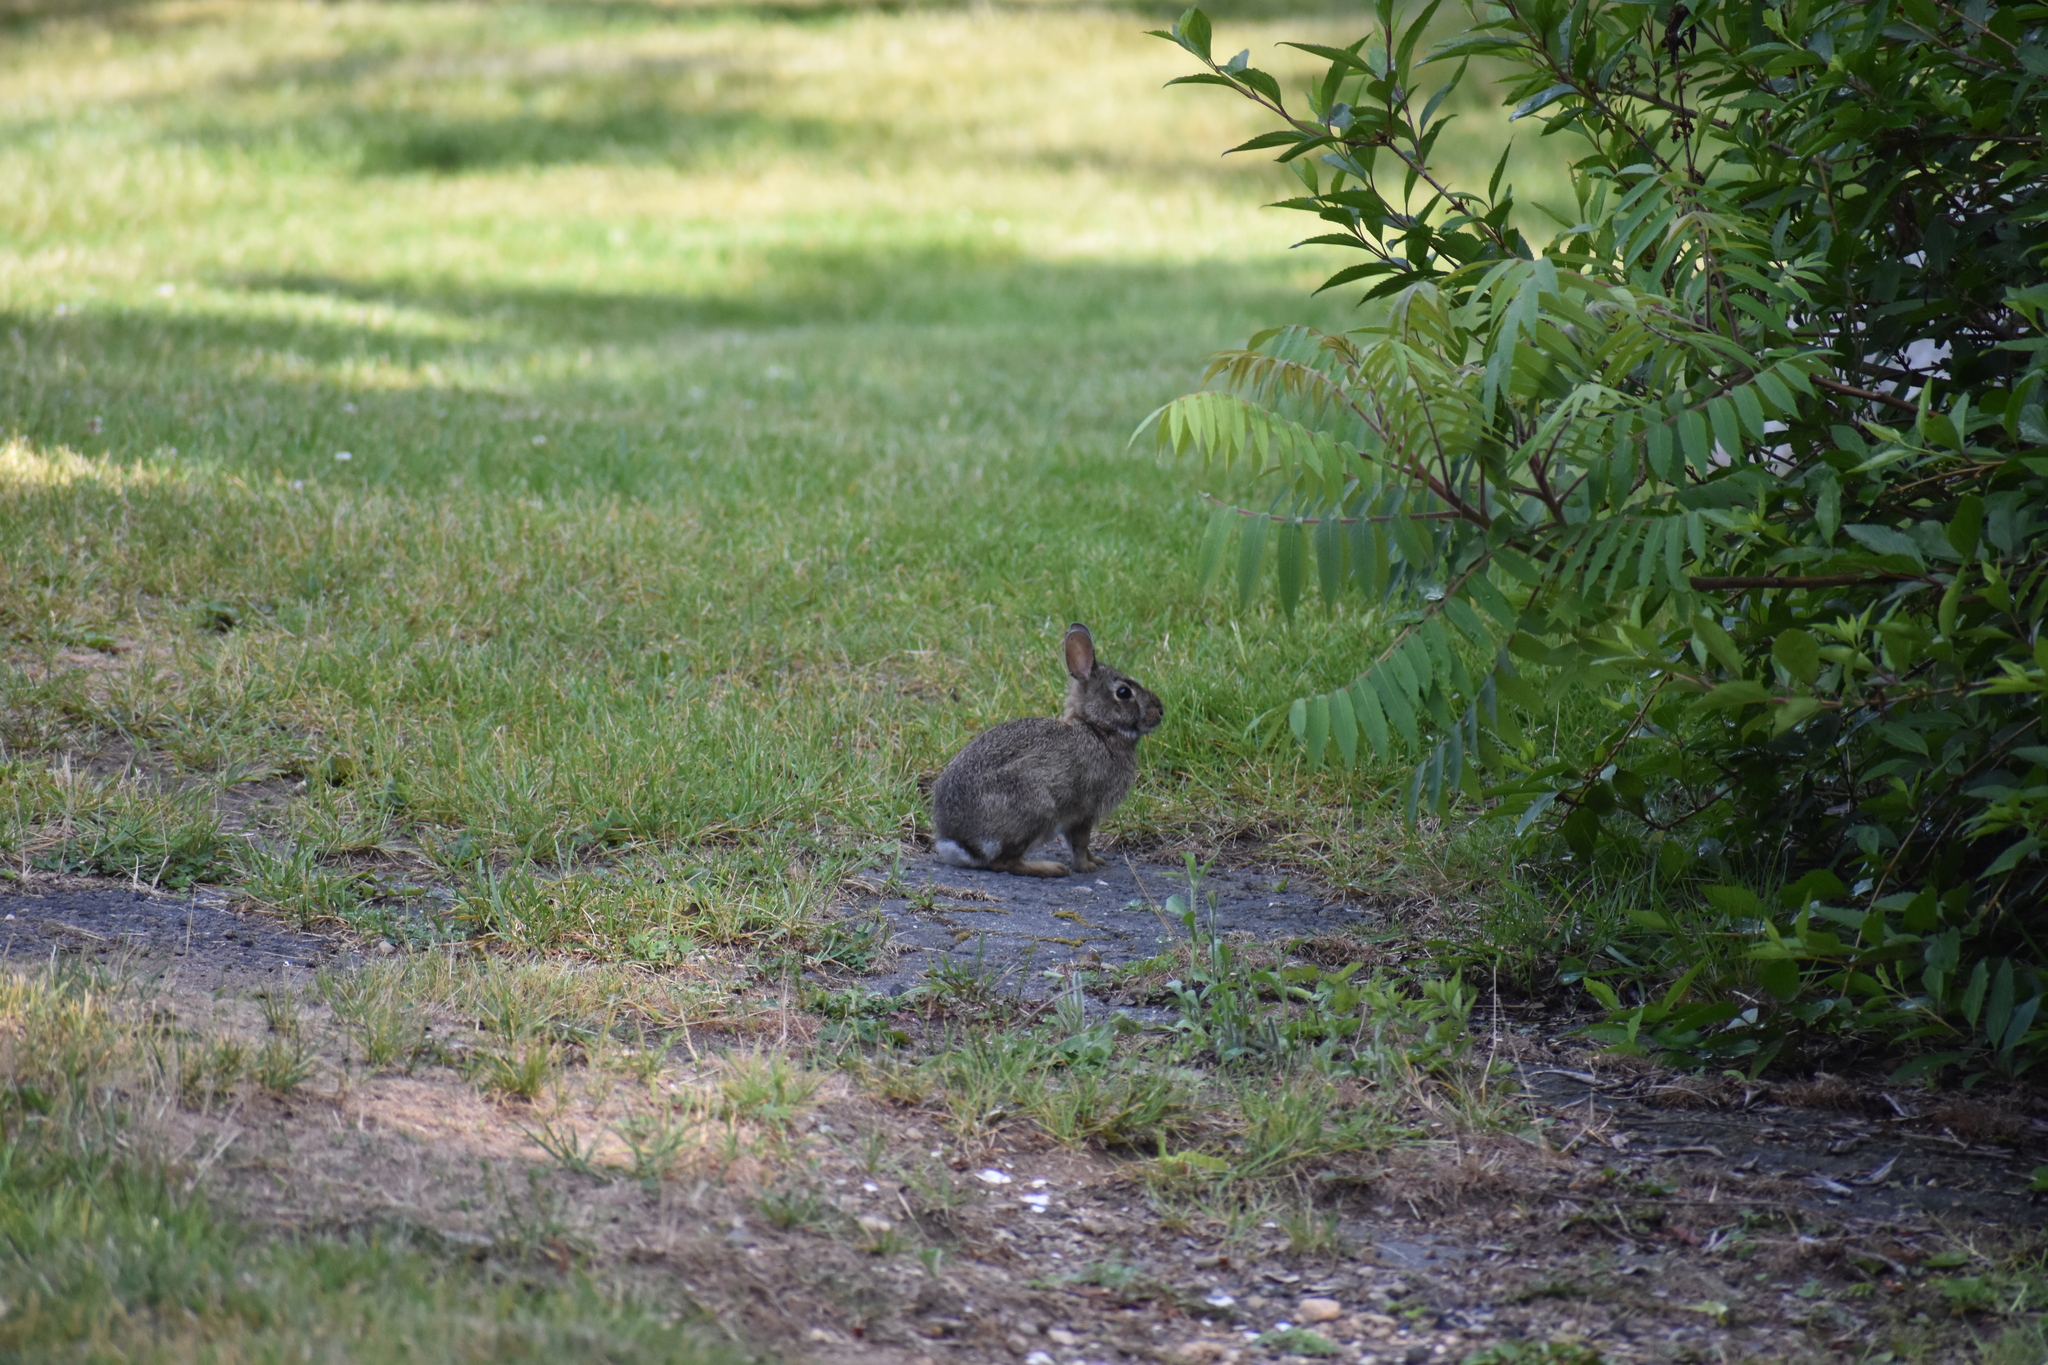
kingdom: Animalia
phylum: Chordata
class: Mammalia
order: Lagomorpha
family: Leporidae
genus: Sylvilagus
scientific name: Sylvilagus floridanus
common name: Eastern cottontail
